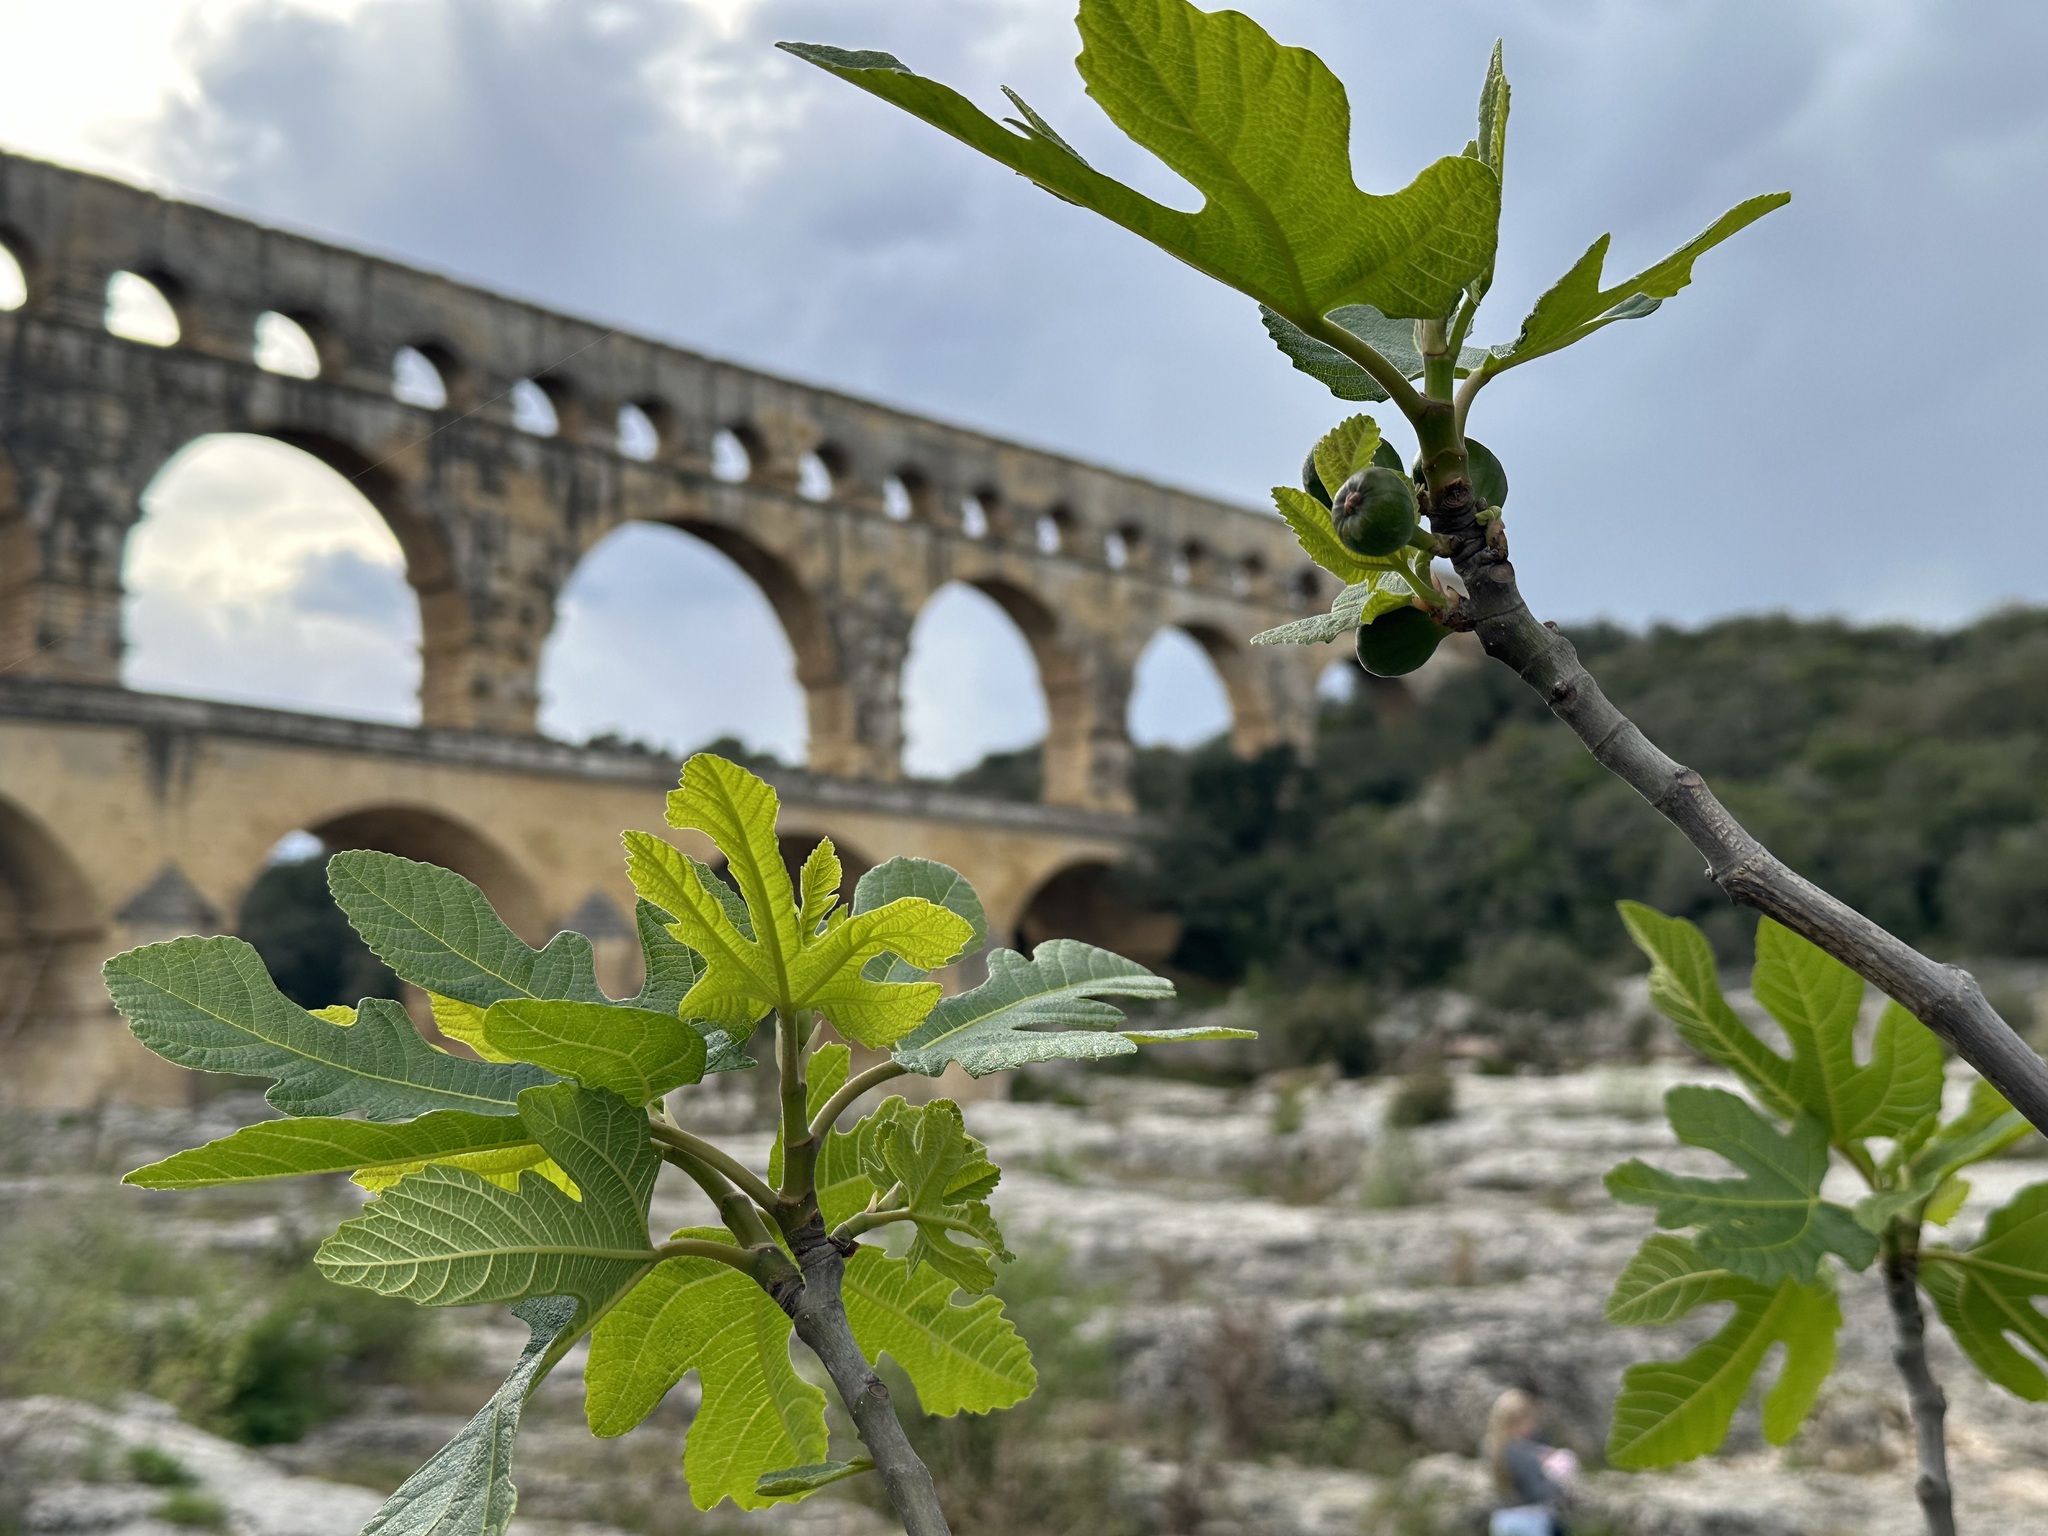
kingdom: Plantae
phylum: Tracheophyta
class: Magnoliopsida
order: Rosales
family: Moraceae
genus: Ficus
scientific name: Ficus carica
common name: Fig
